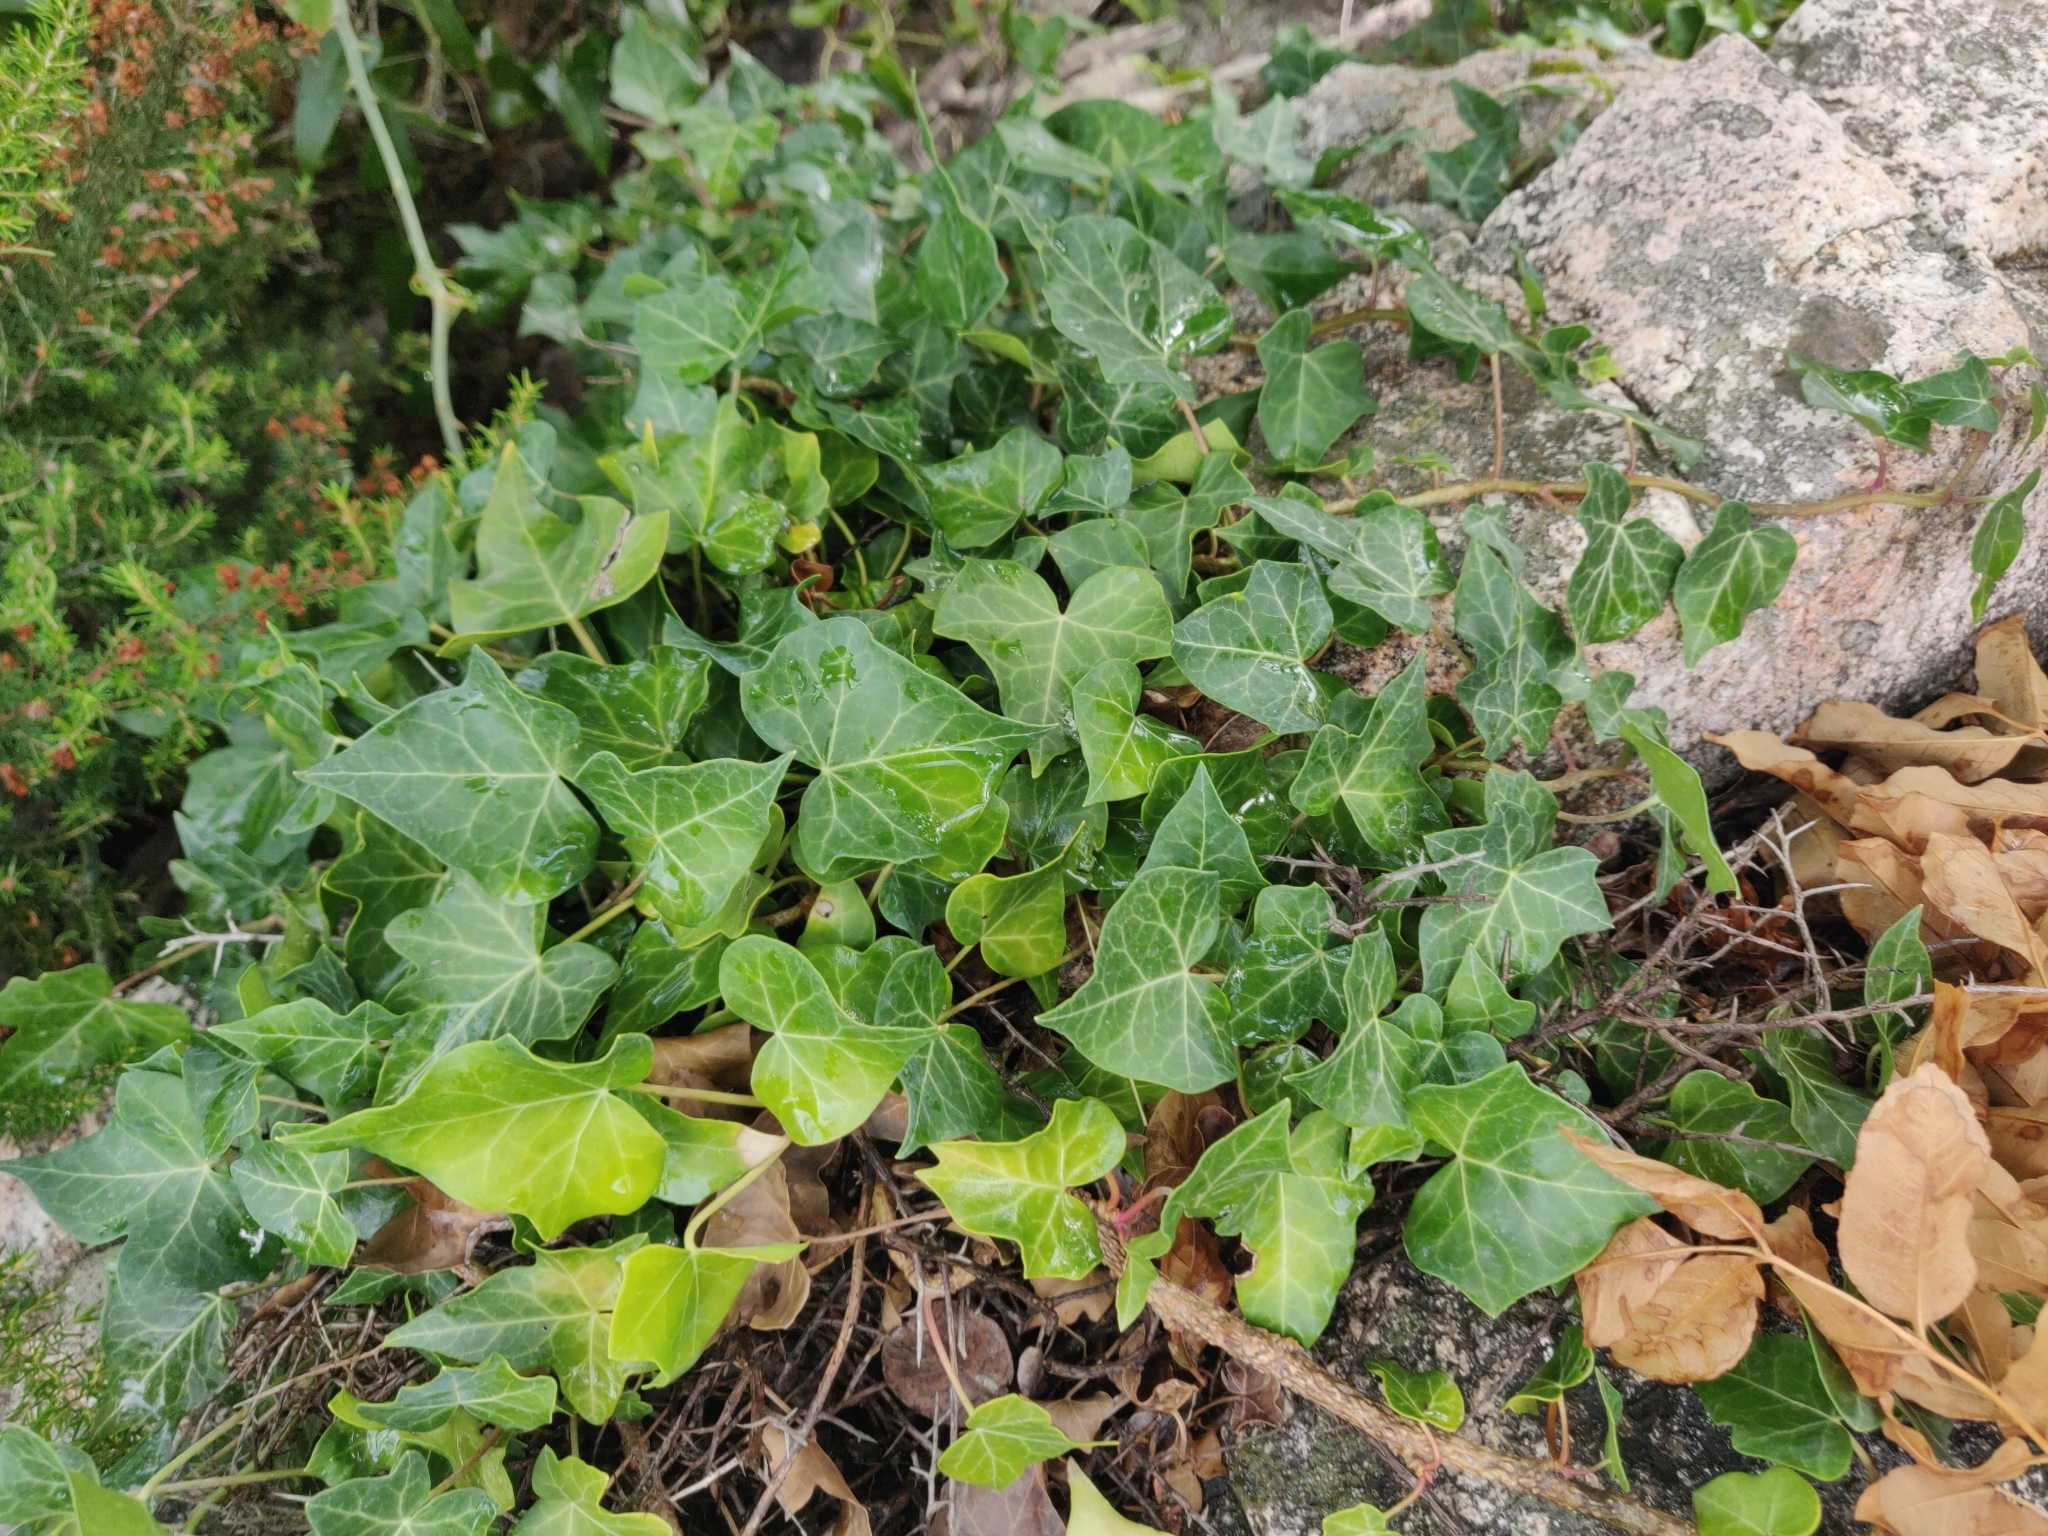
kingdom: Plantae
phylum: Tracheophyta
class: Magnoliopsida
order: Apiales
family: Araliaceae
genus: Hedera
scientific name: Hedera helix
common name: Ivy
